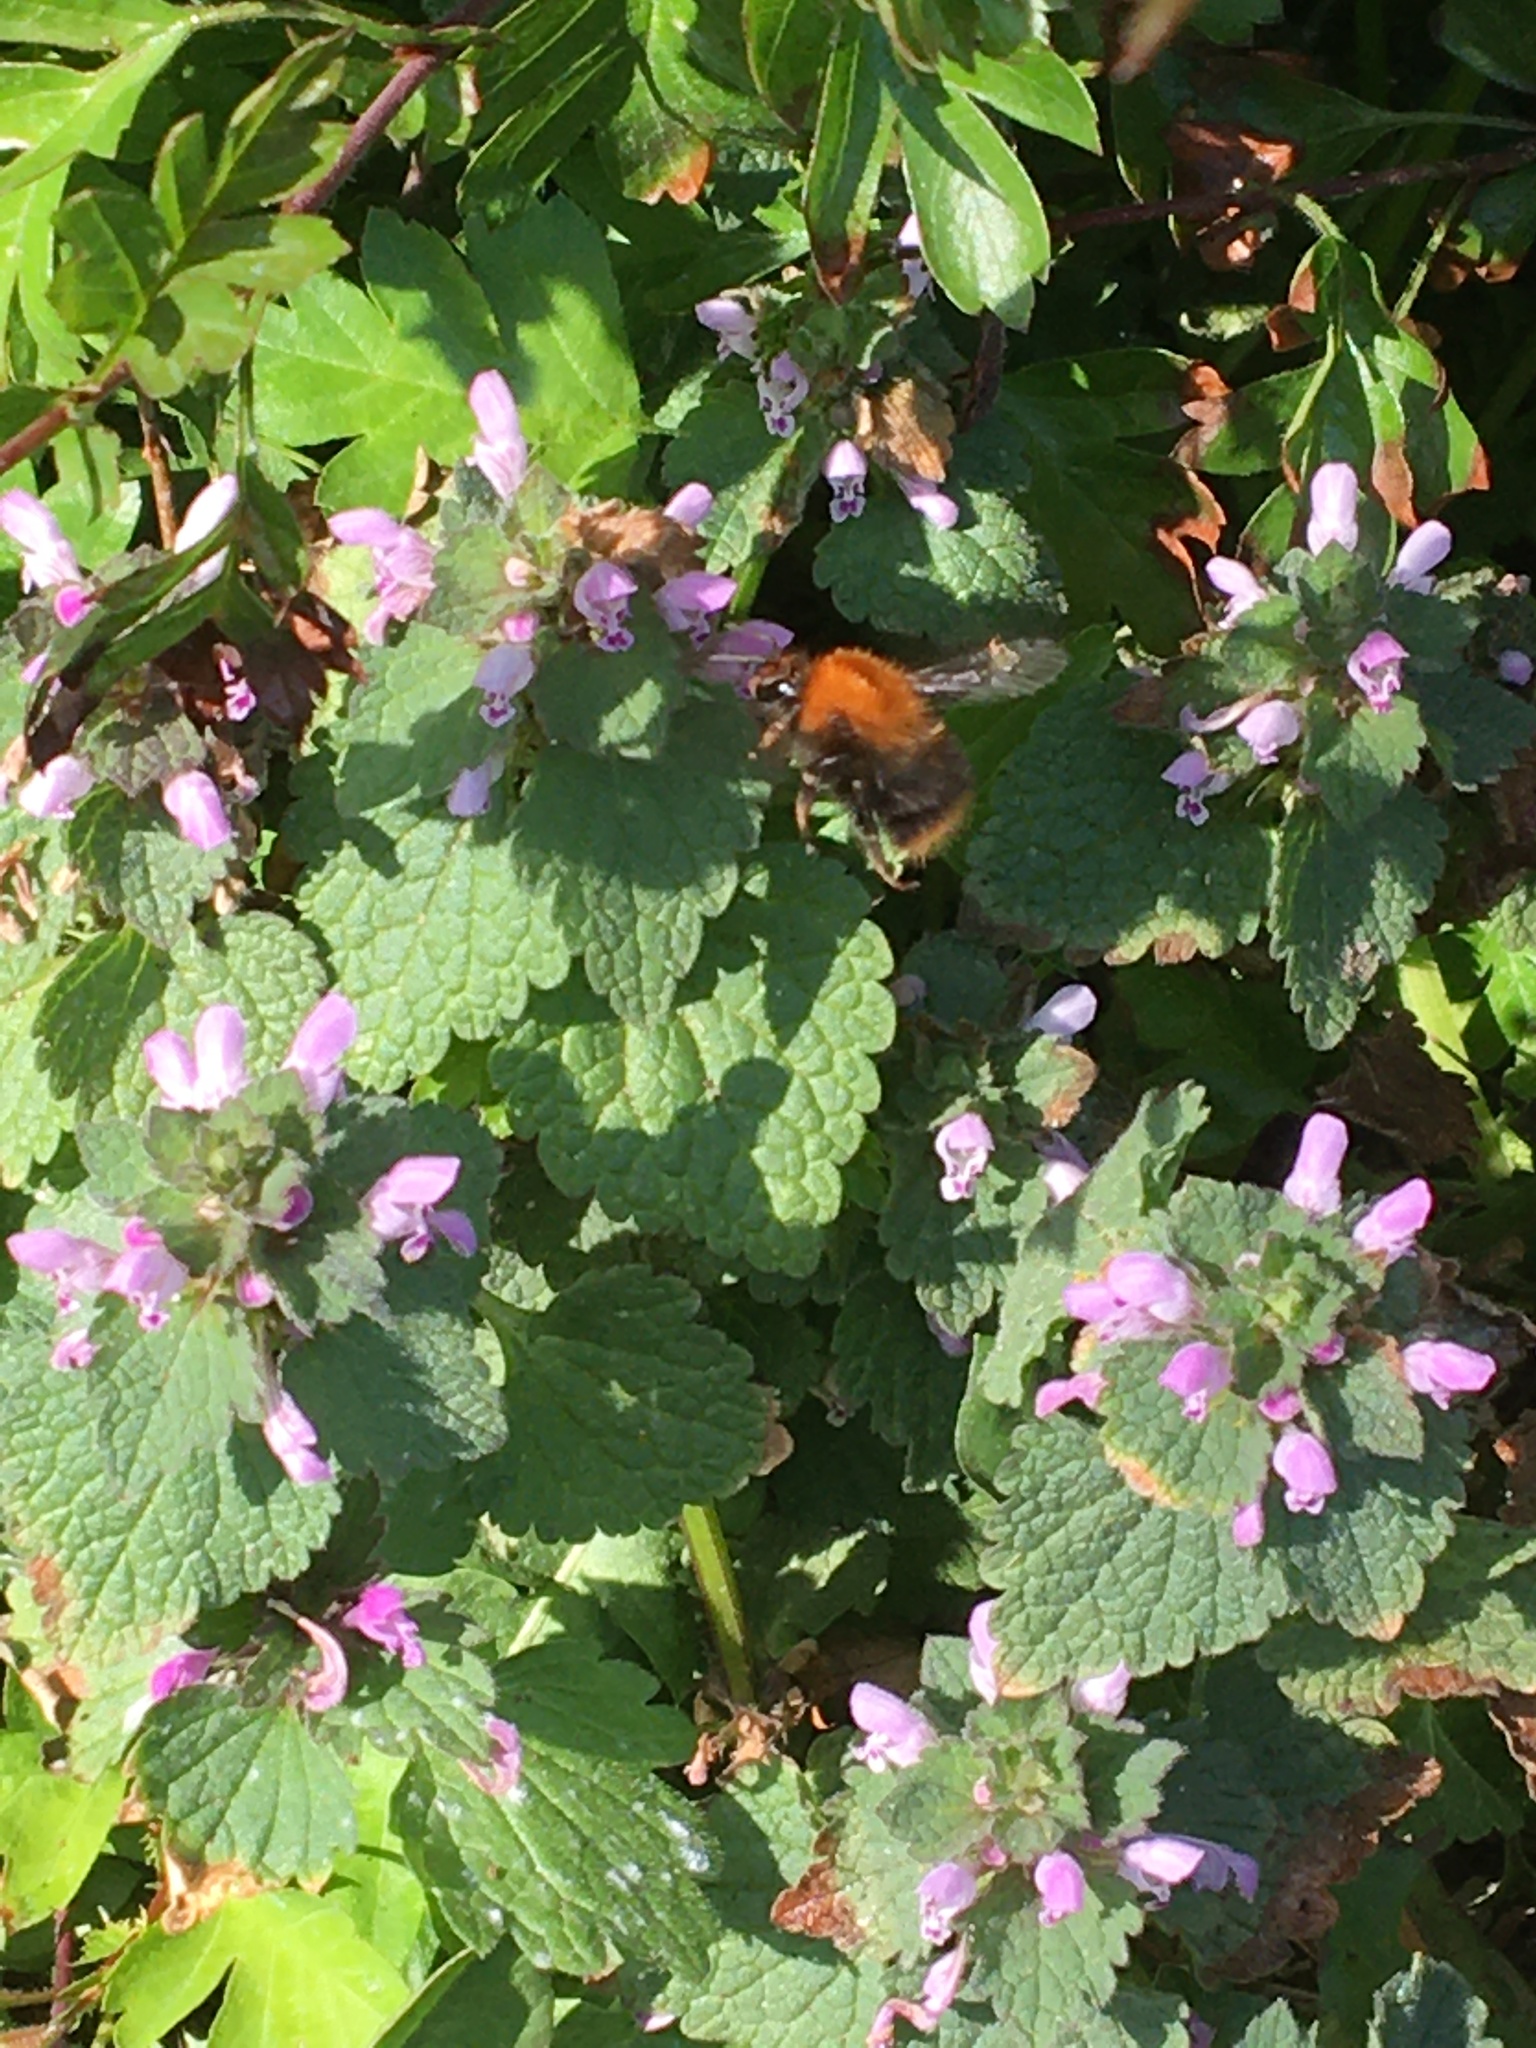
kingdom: Animalia
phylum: Arthropoda
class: Insecta
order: Hymenoptera
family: Apidae
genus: Bombus
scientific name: Bombus pascuorum
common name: Common carder bee
